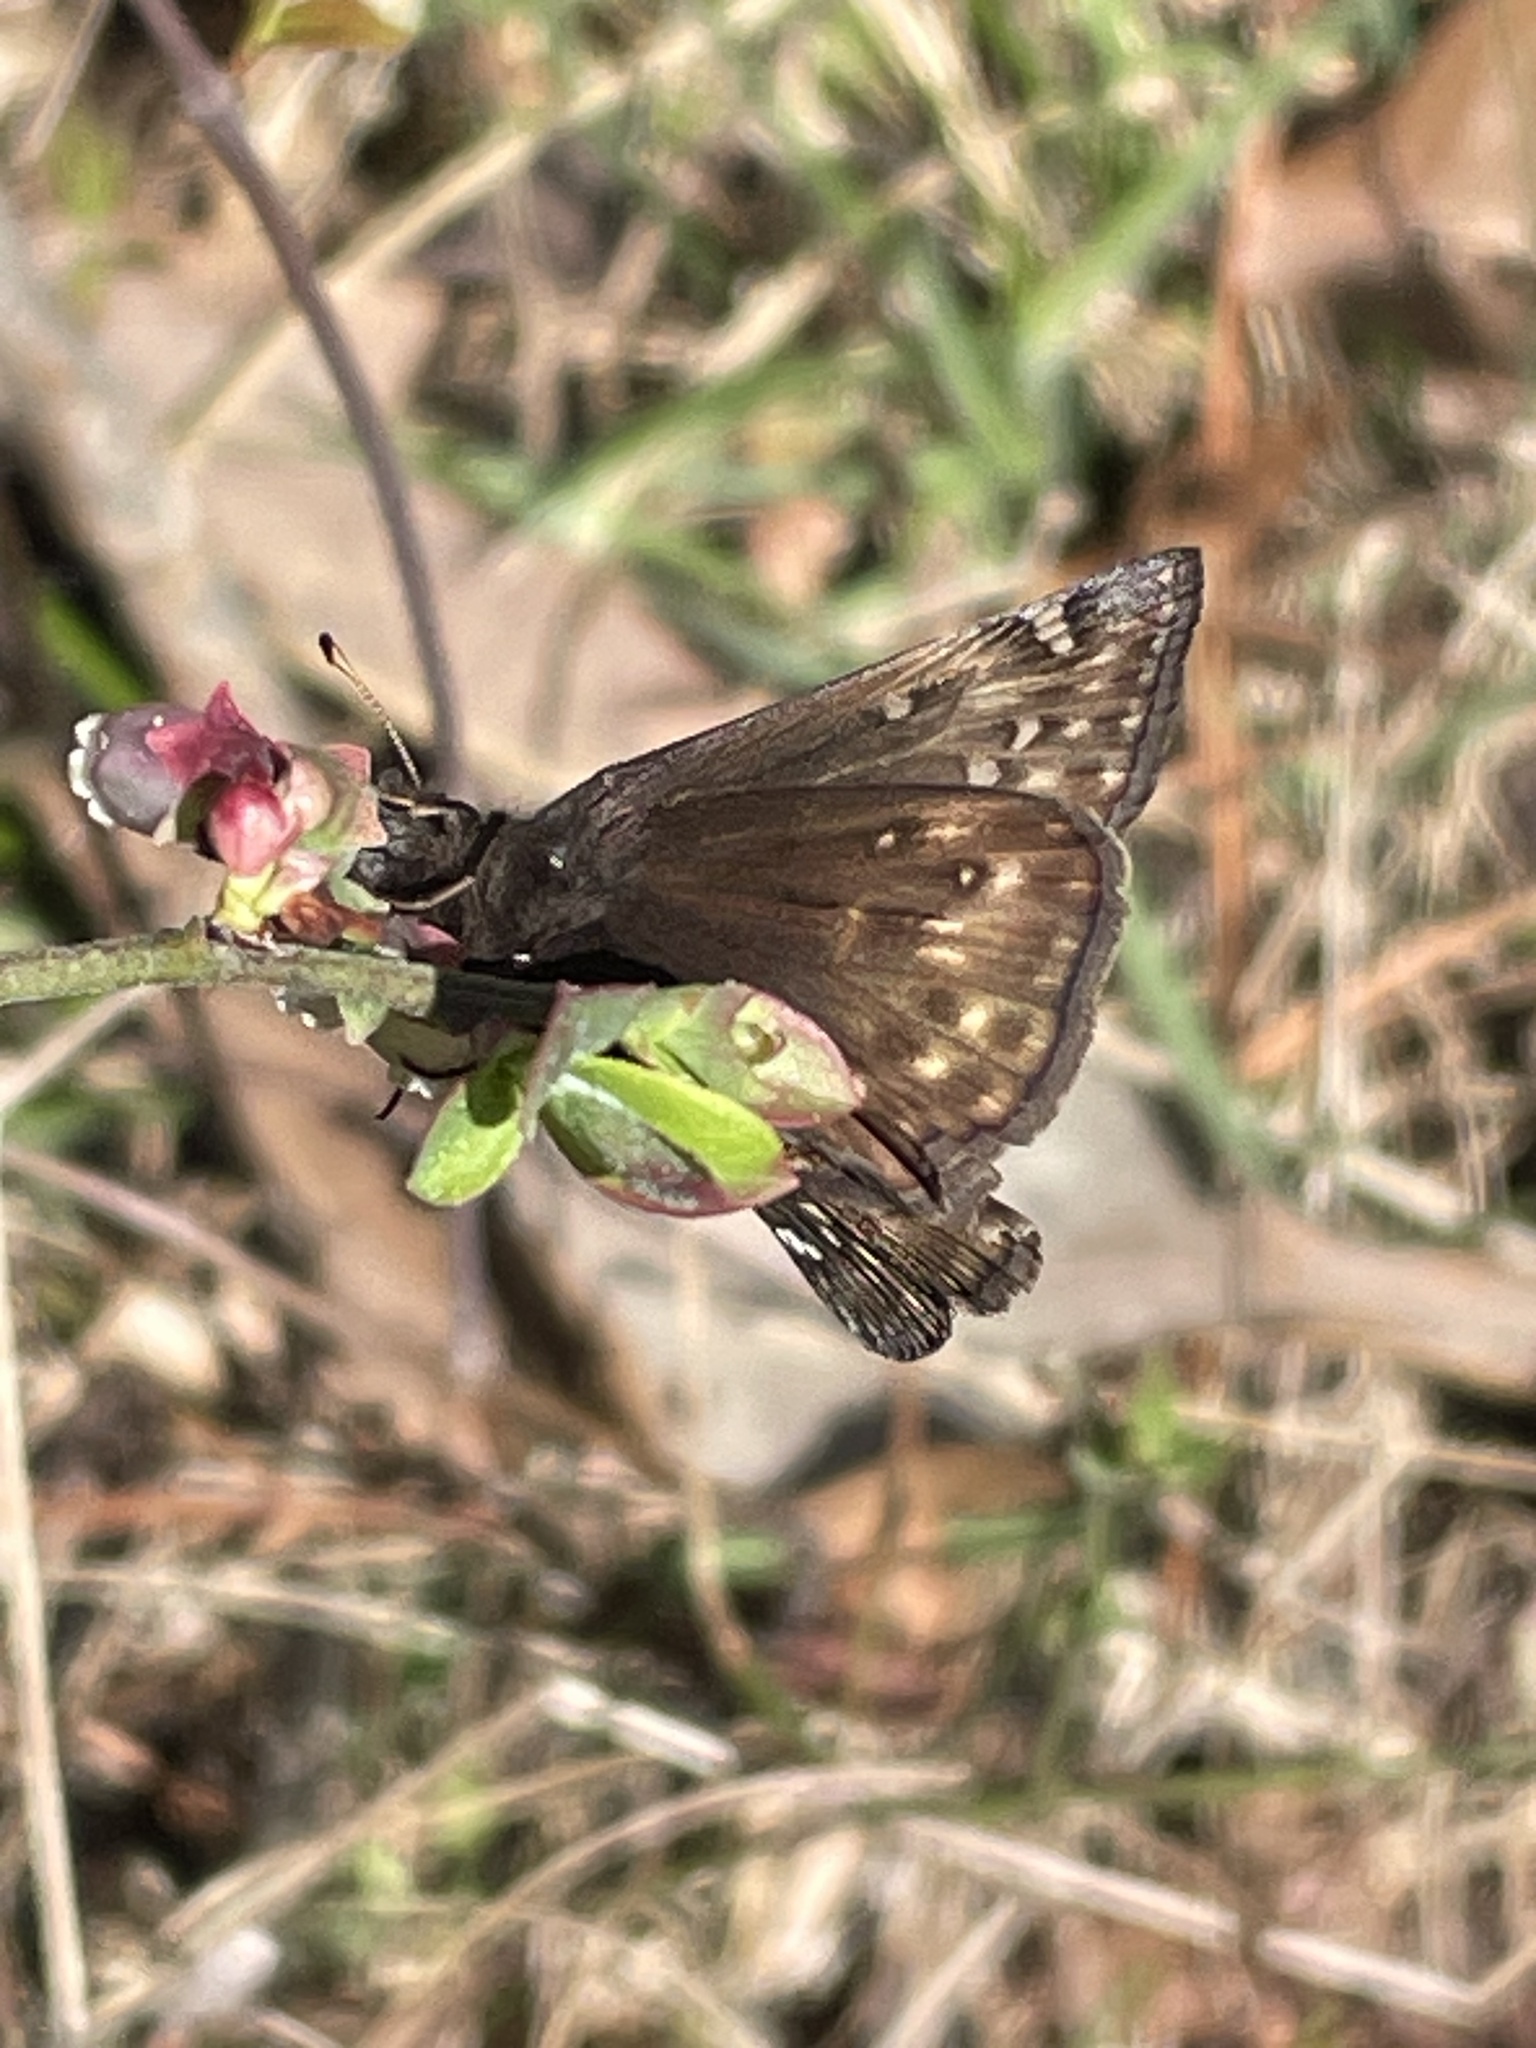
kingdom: Animalia
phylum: Arthropoda
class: Insecta
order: Lepidoptera
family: Hesperiidae
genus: Erynnis
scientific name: Erynnis juvenalis
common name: Juvenal's duskywing
